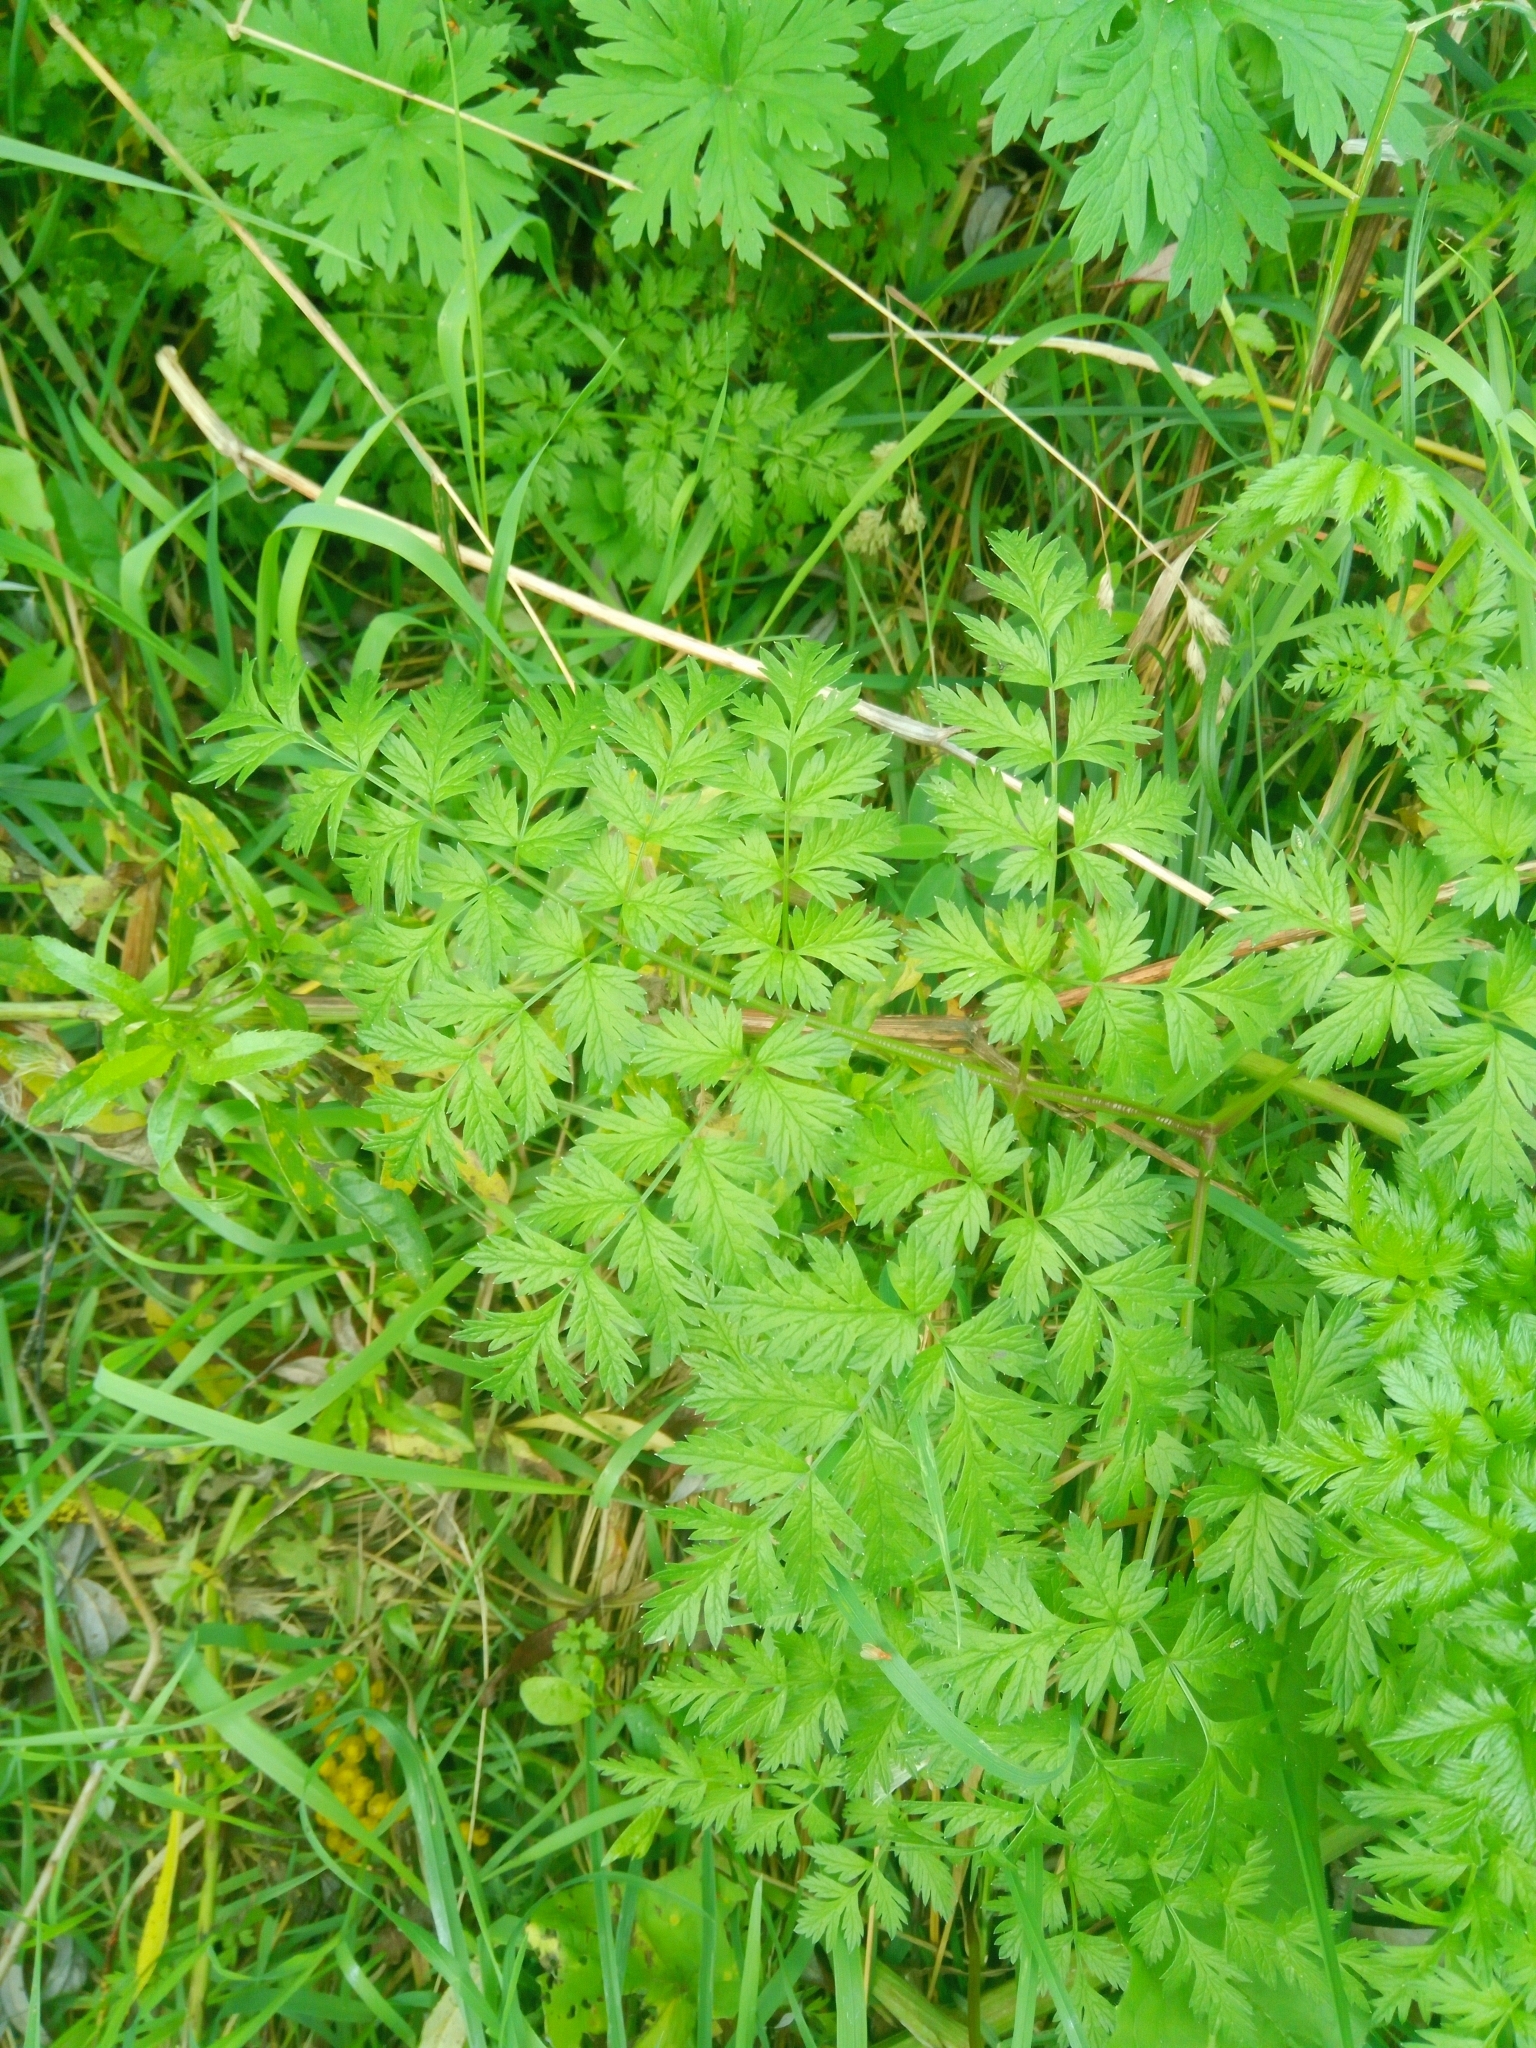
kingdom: Plantae
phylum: Tracheophyta
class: Magnoliopsida
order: Apiales
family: Apiaceae
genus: Anthriscus
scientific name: Anthriscus sylvestris
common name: Cow parsley
